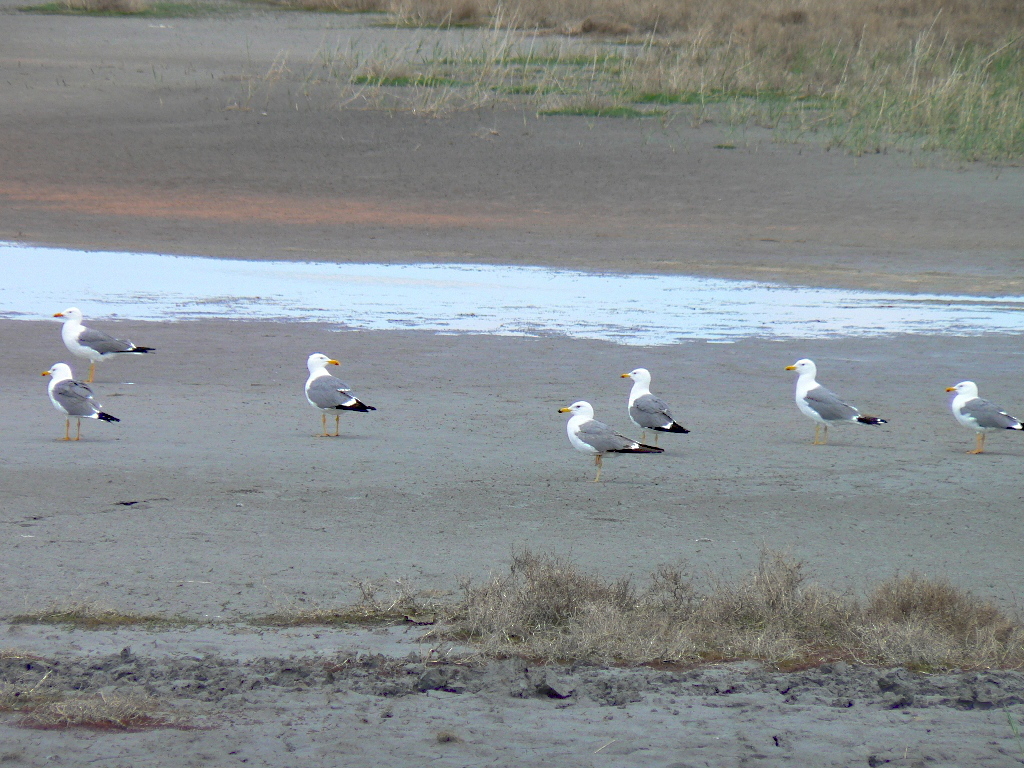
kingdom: Animalia
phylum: Chordata
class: Aves
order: Charadriiformes
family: Laridae
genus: Larus
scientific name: Larus fuscus
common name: Lesser black-backed gull
